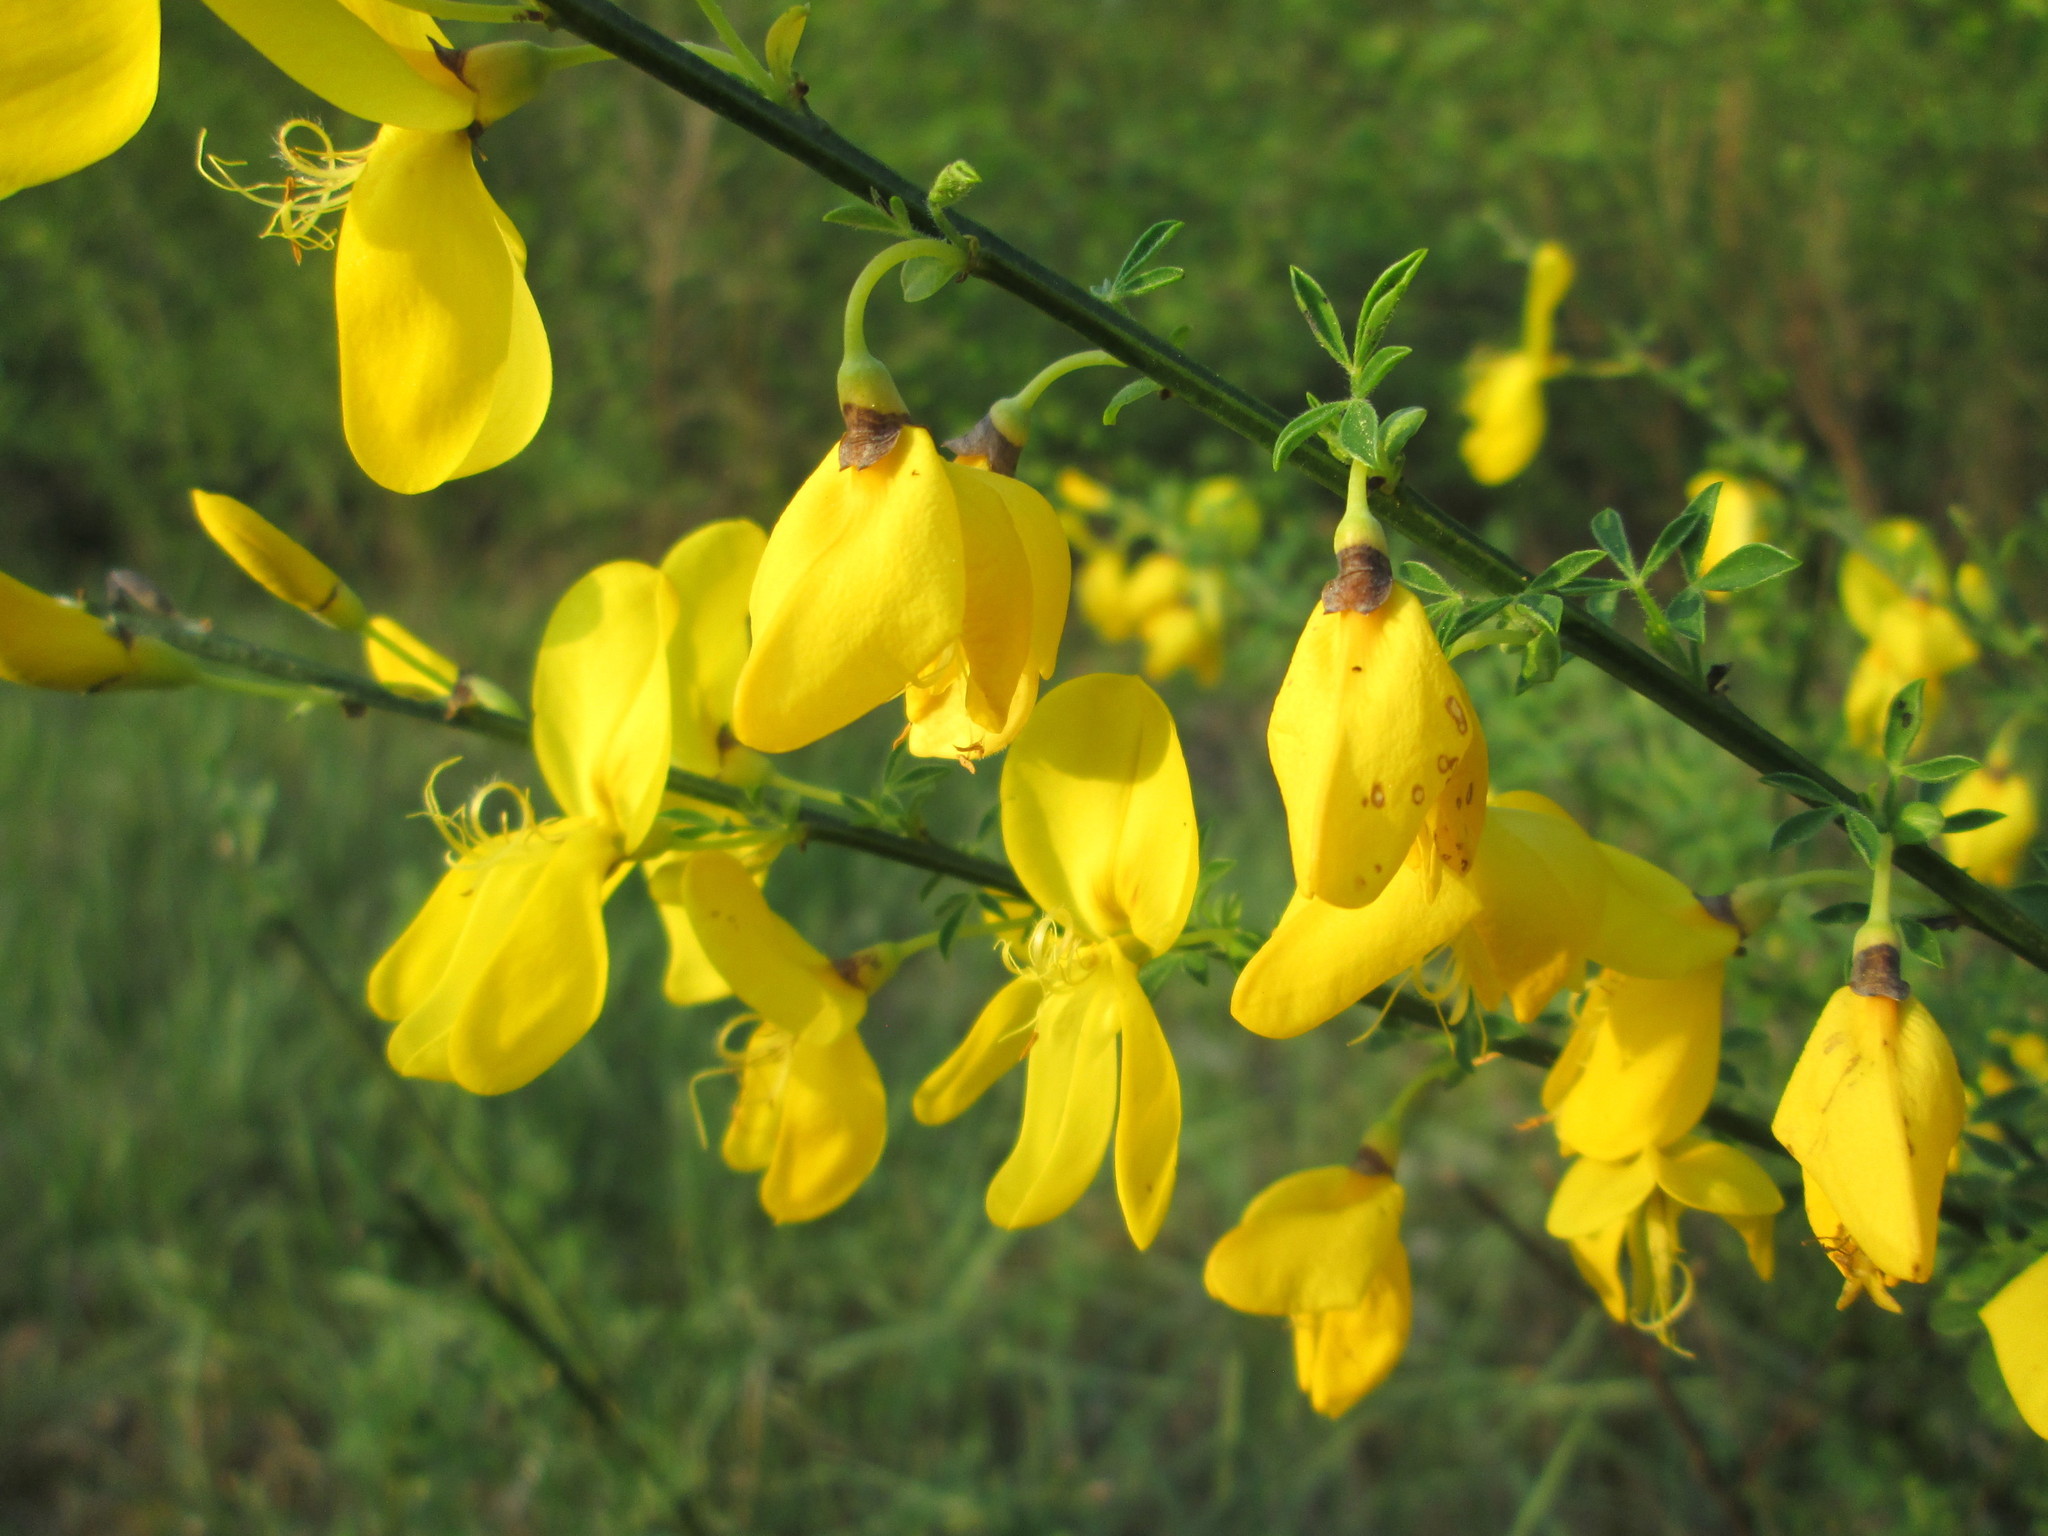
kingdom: Plantae
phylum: Tracheophyta
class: Magnoliopsida
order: Fabales
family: Fabaceae
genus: Cytisus
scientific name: Cytisus scoparius
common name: Scotch broom
